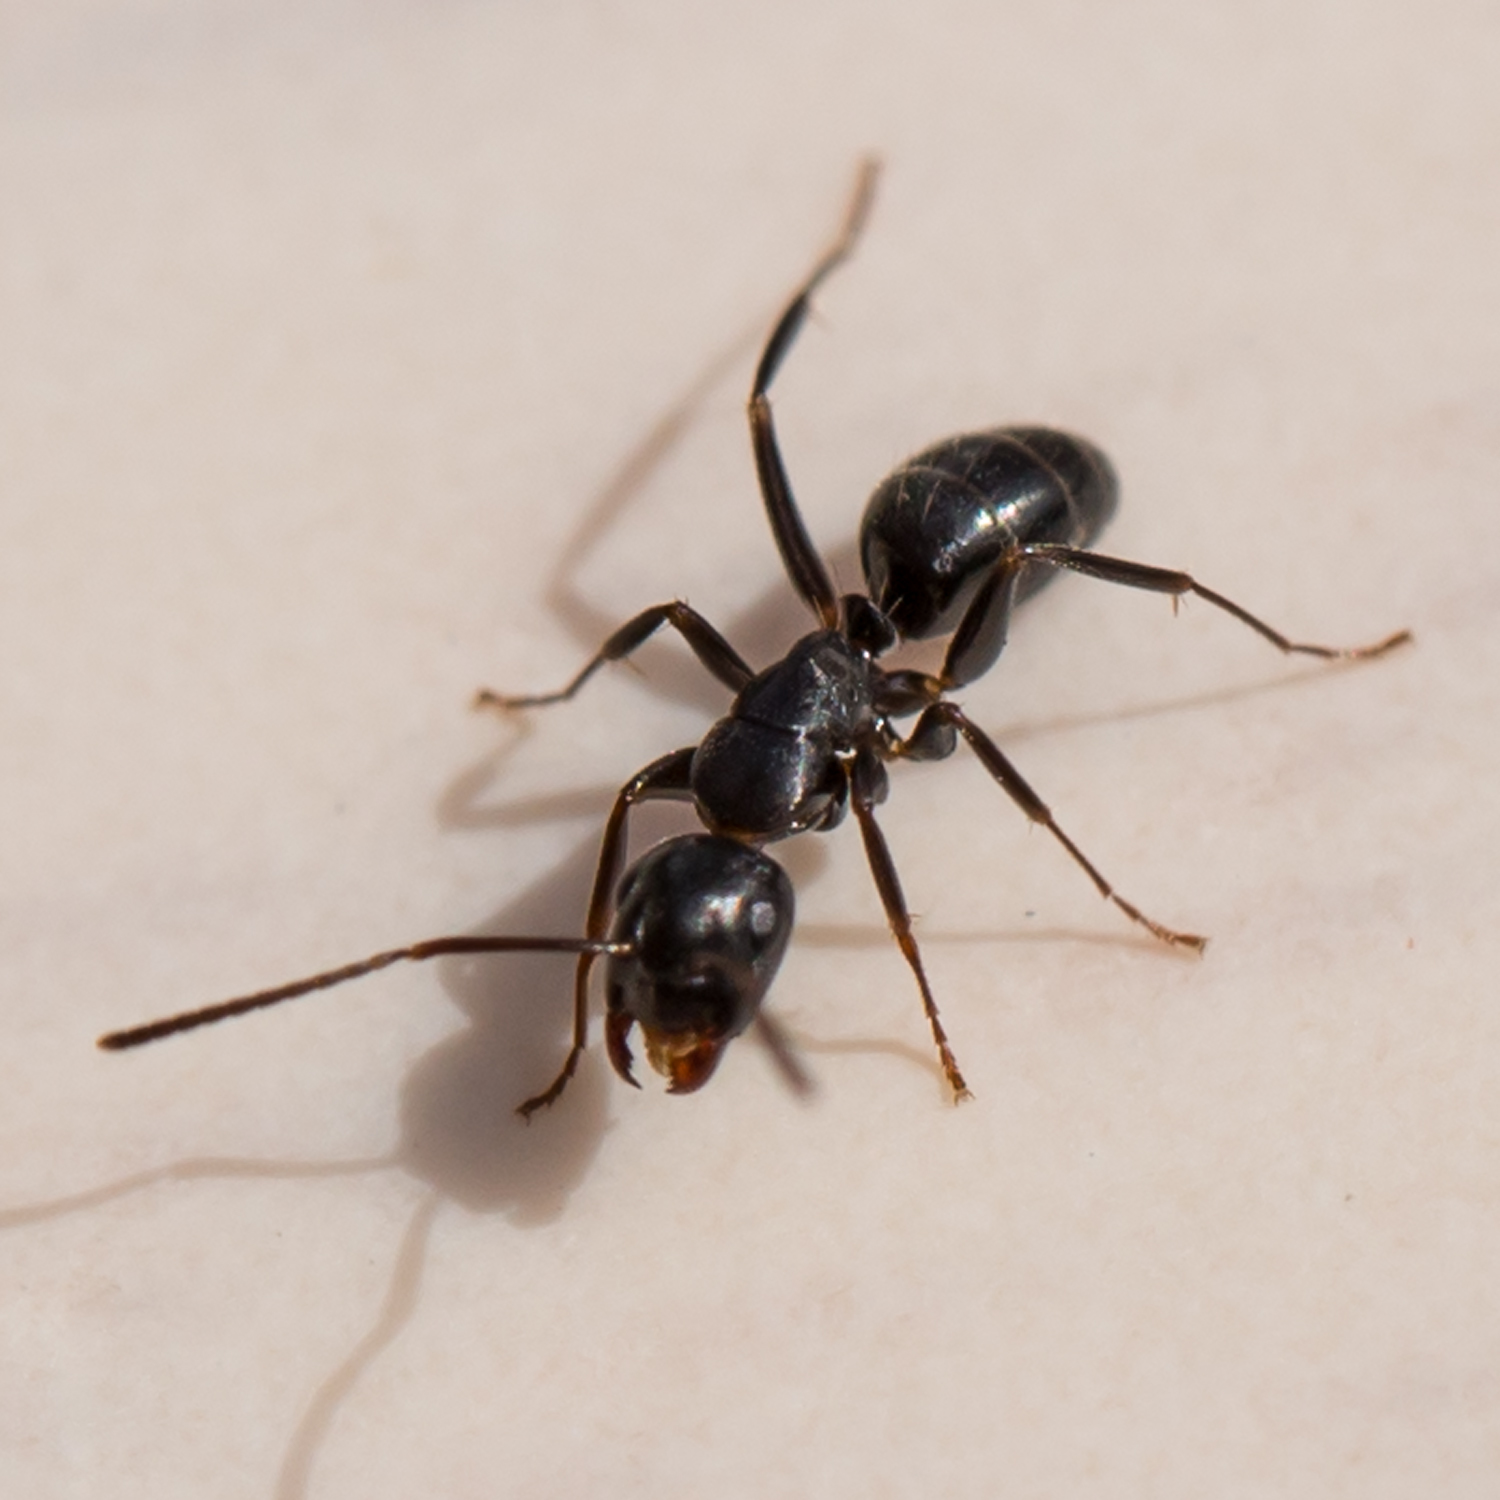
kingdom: Animalia
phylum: Arthropoda
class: Insecta
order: Hymenoptera
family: Formicidae
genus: Camponotus
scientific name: Camponotus nearcticus
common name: Smaller carpenter ant
